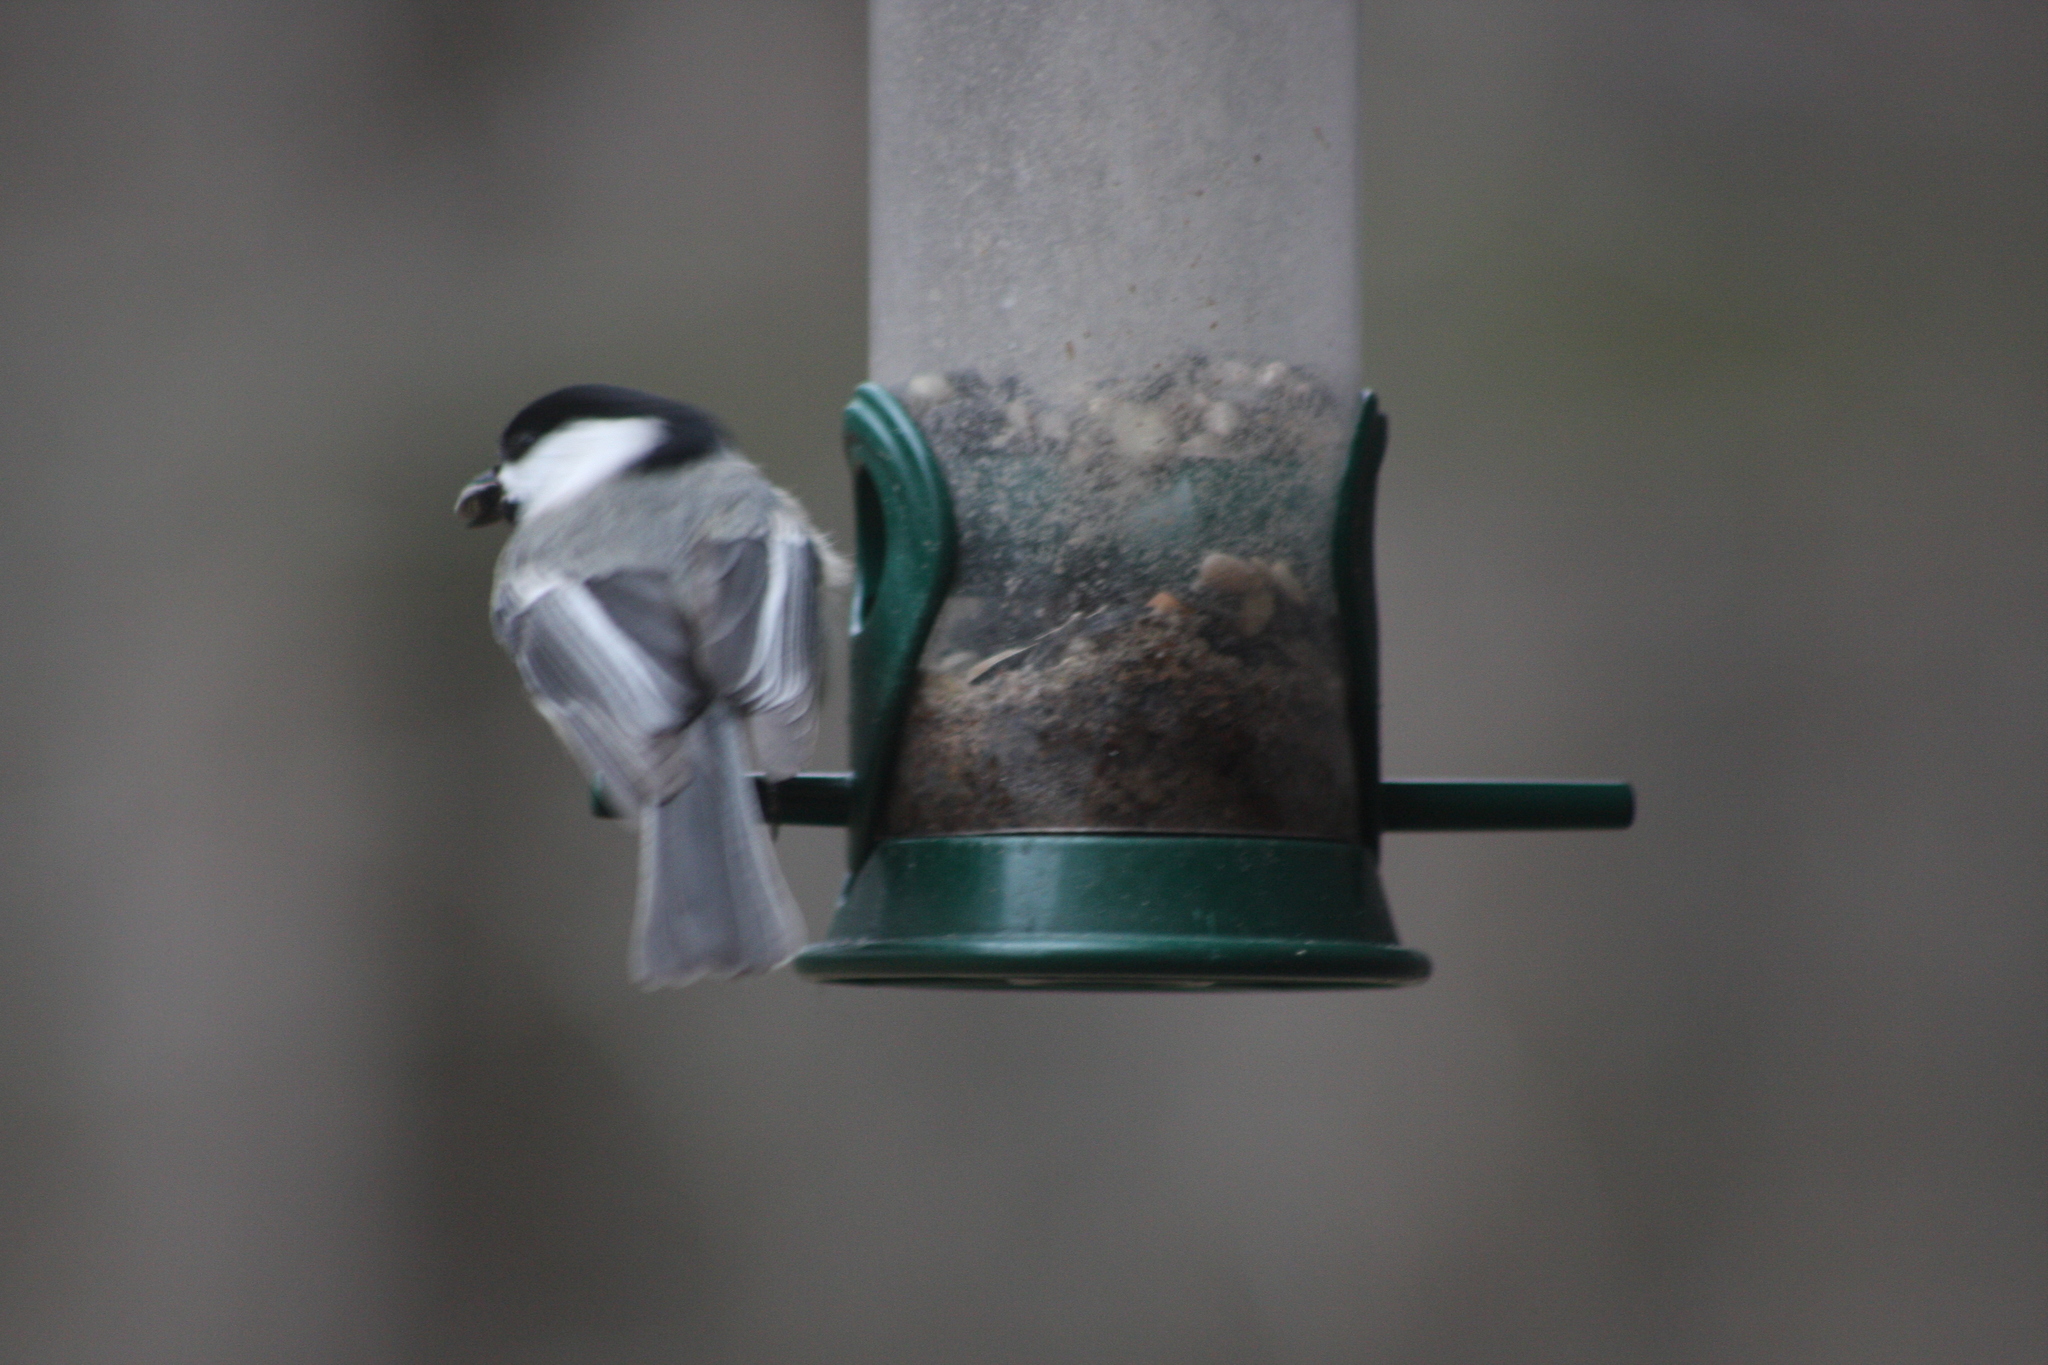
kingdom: Animalia
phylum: Chordata
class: Aves
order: Passeriformes
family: Paridae
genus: Poecile
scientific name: Poecile atricapillus
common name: Black-capped chickadee
